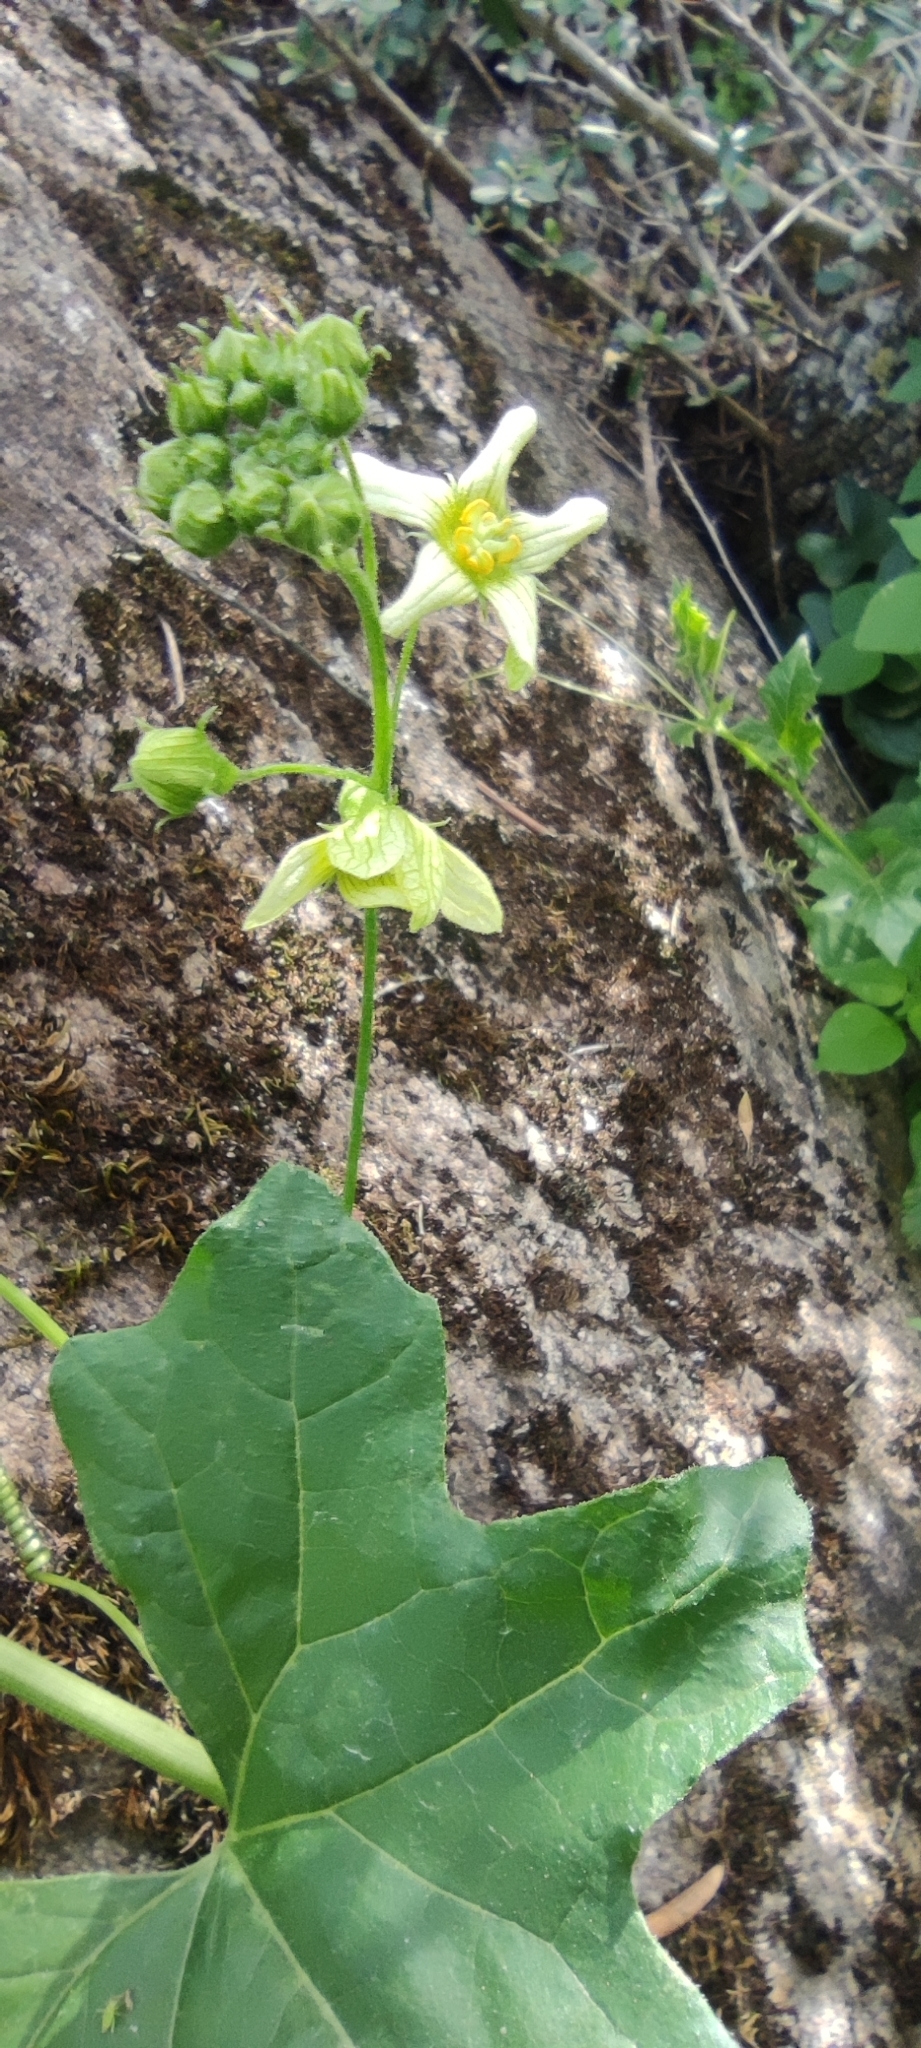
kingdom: Plantae
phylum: Tracheophyta
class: Magnoliopsida
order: Cucurbitales
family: Cucurbitaceae
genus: Bryonia
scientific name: Bryonia cretica
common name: Cretan bryony
